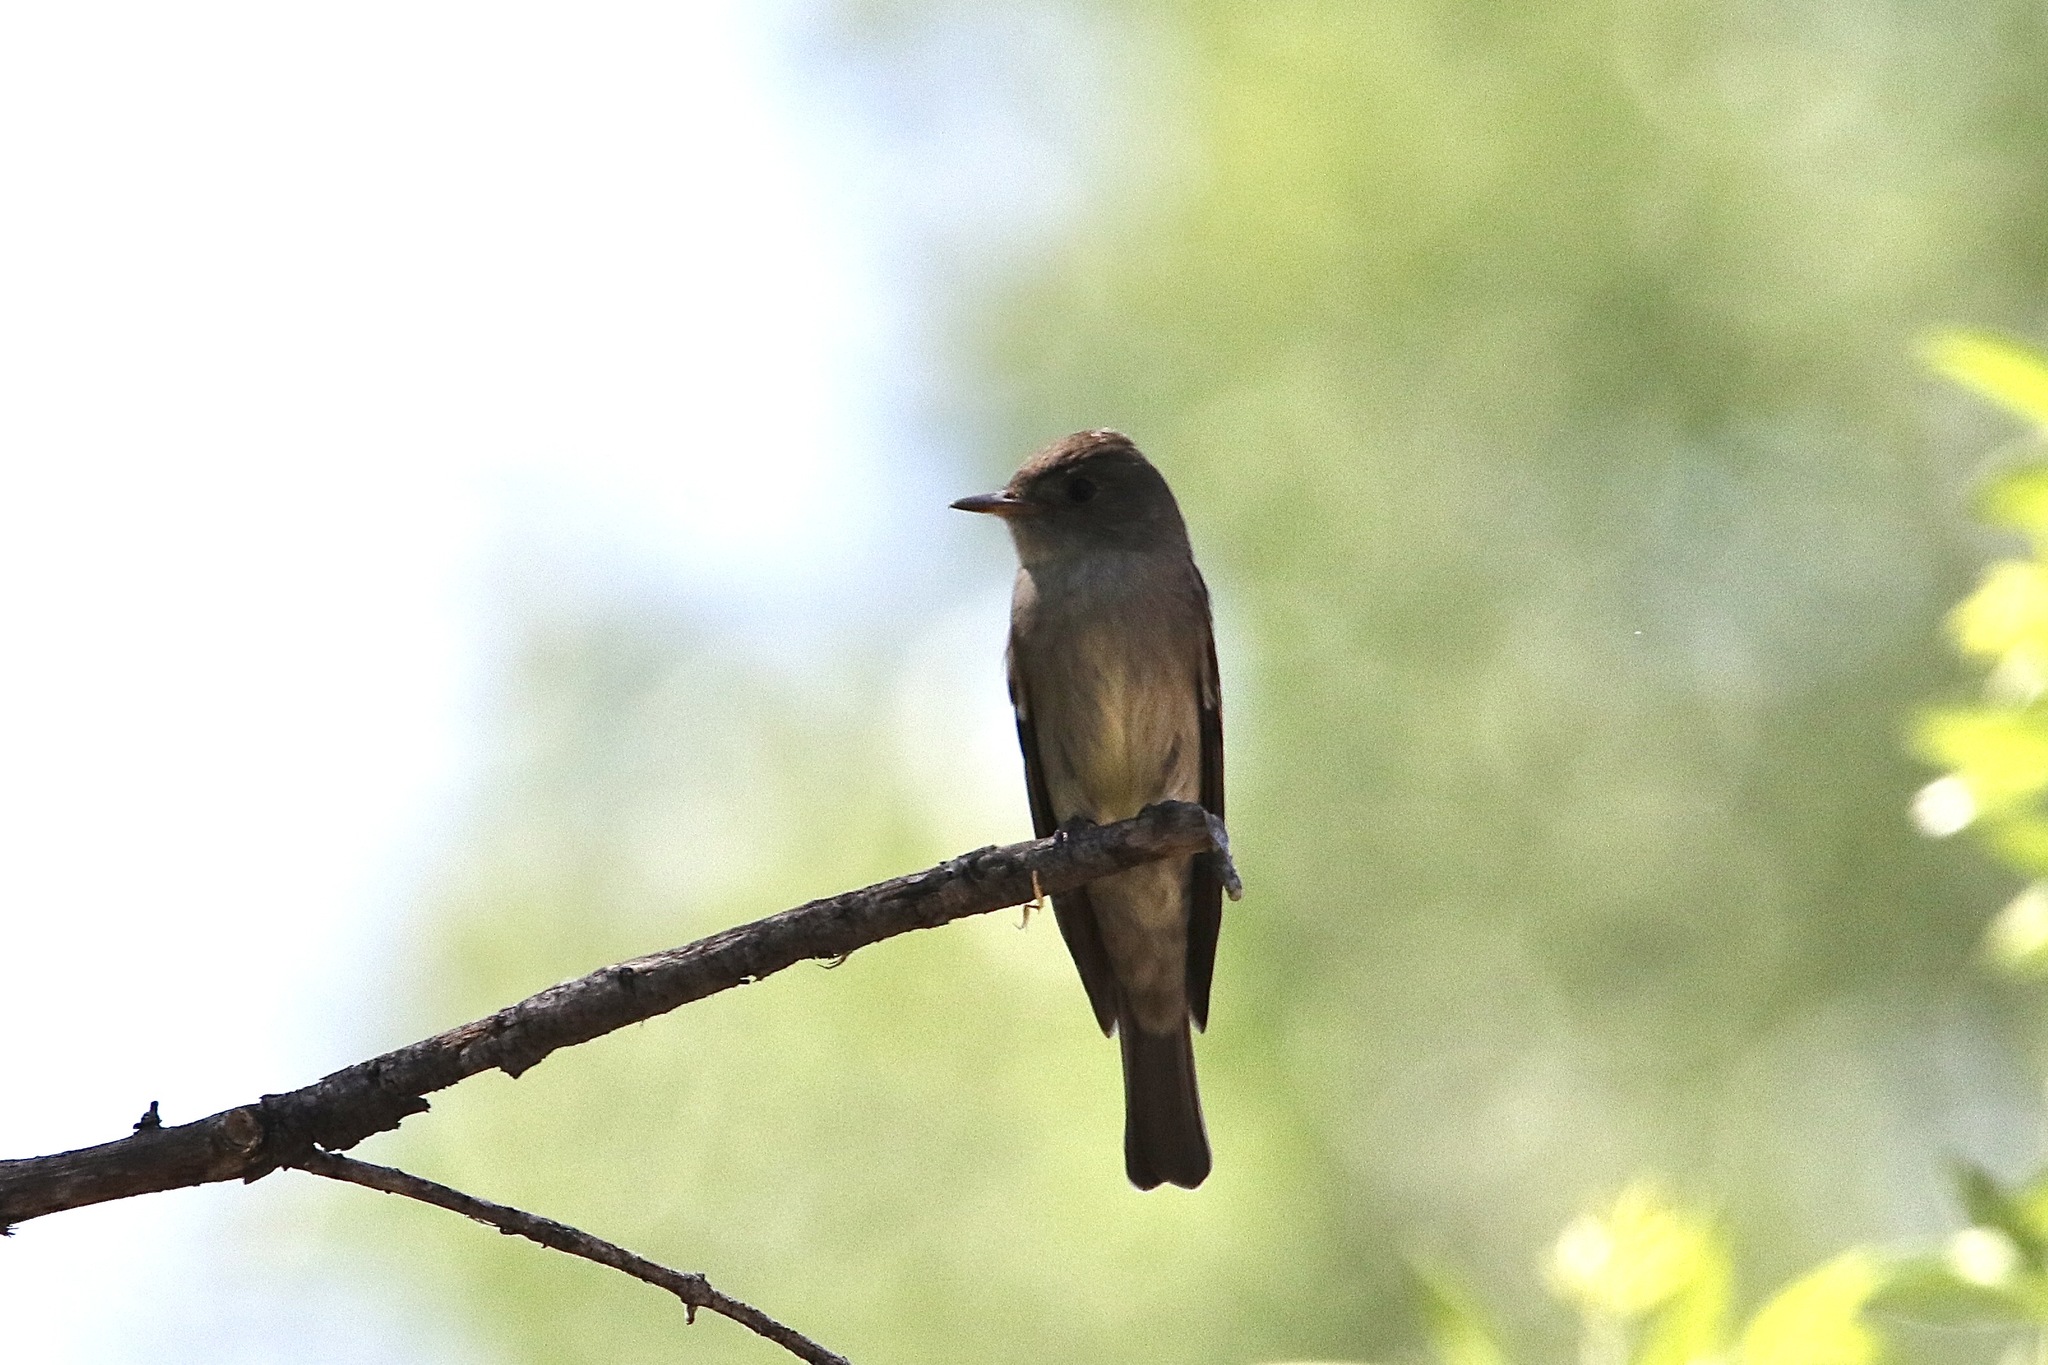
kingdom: Animalia
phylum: Chordata
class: Aves
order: Passeriformes
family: Tyrannidae
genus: Contopus
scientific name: Contopus sordidulus
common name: Western wood-pewee
